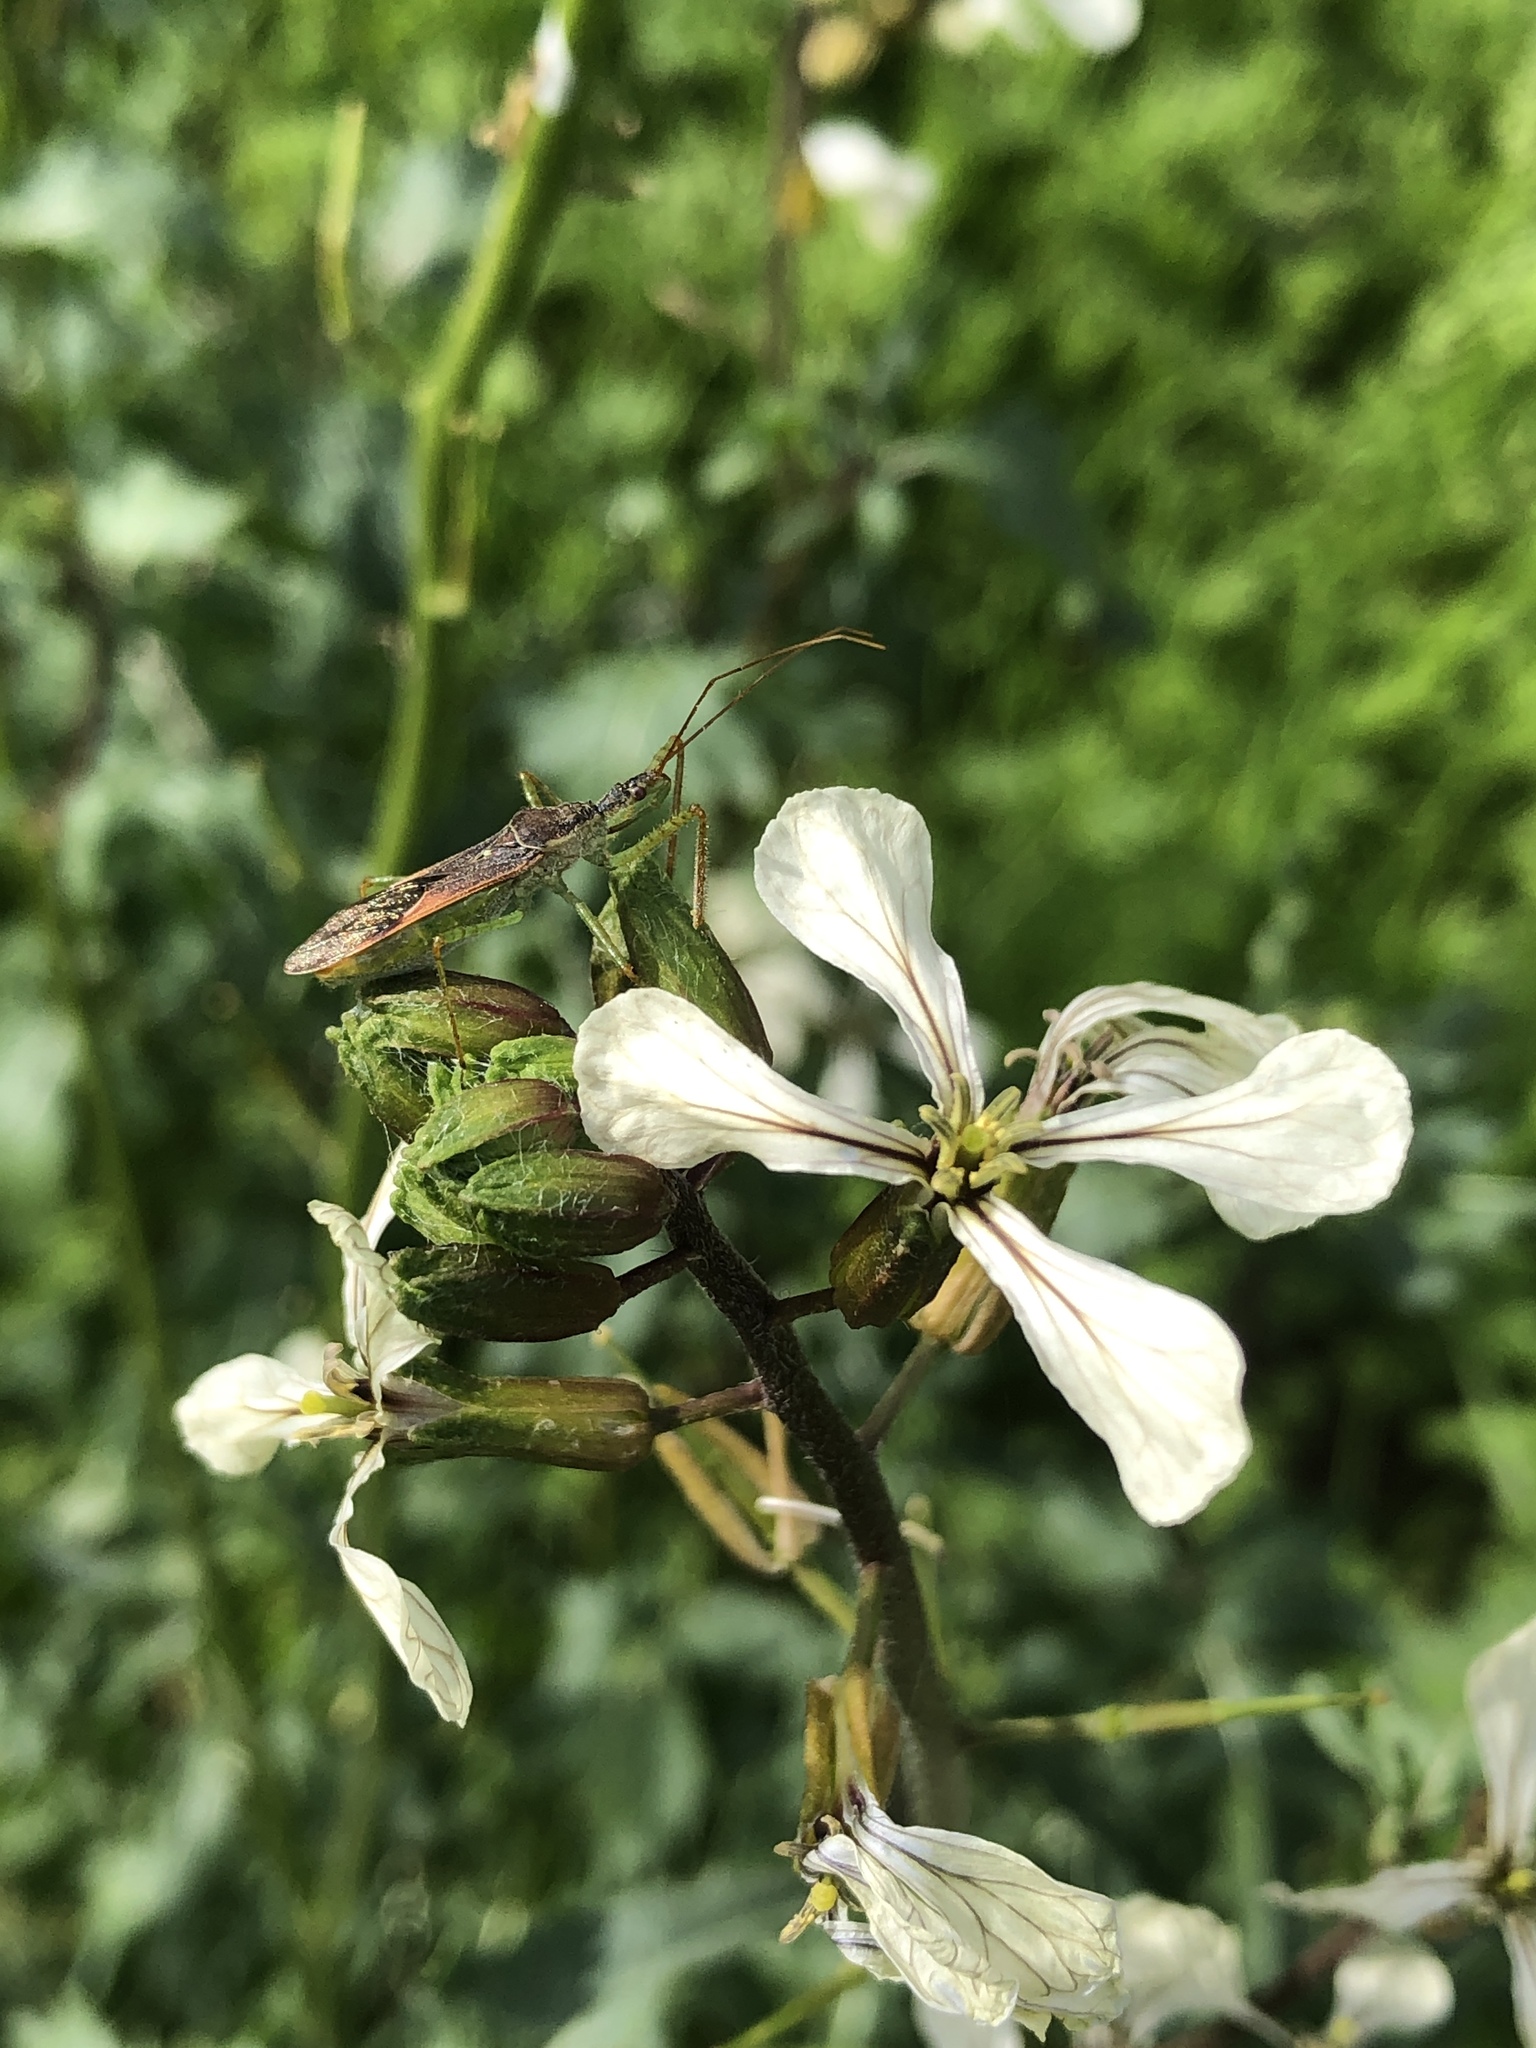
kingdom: Animalia
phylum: Arthropoda
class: Insecta
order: Hemiptera
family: Reduviidae
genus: Zelus
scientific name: Zelus renardii
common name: Assassin bug
